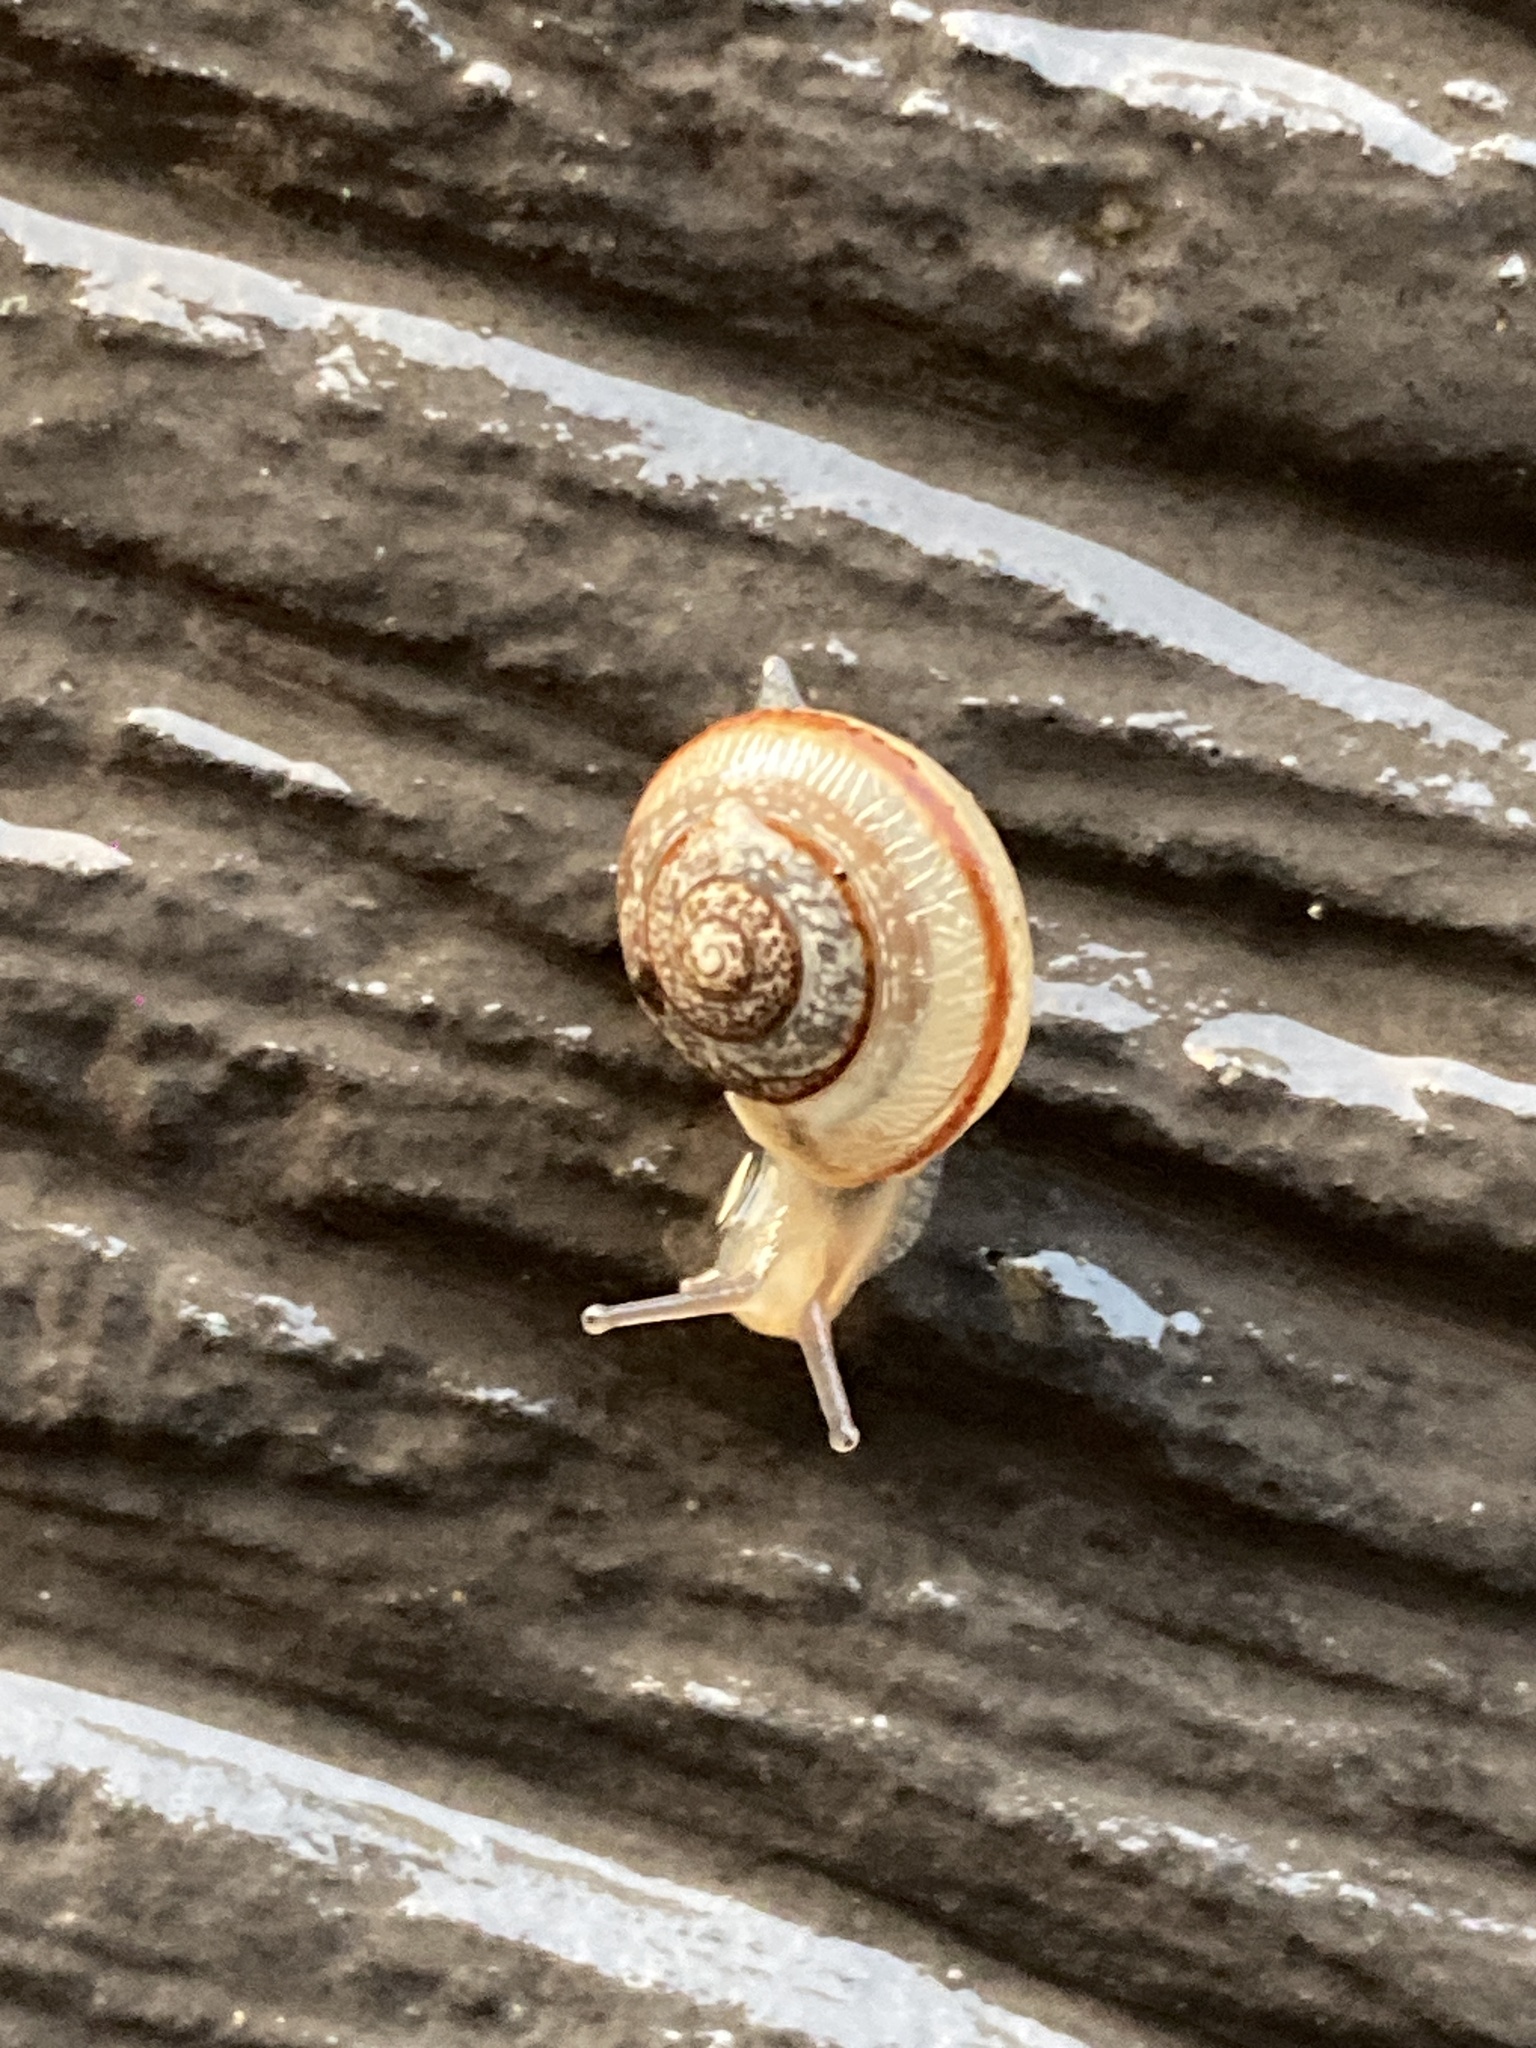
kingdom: Animalia
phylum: Mollusca
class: Gastropoda
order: Stylommatophora
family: Camaenidae
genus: Bradybaena
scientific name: Bradybaena similaris
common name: Asian trampsnail
